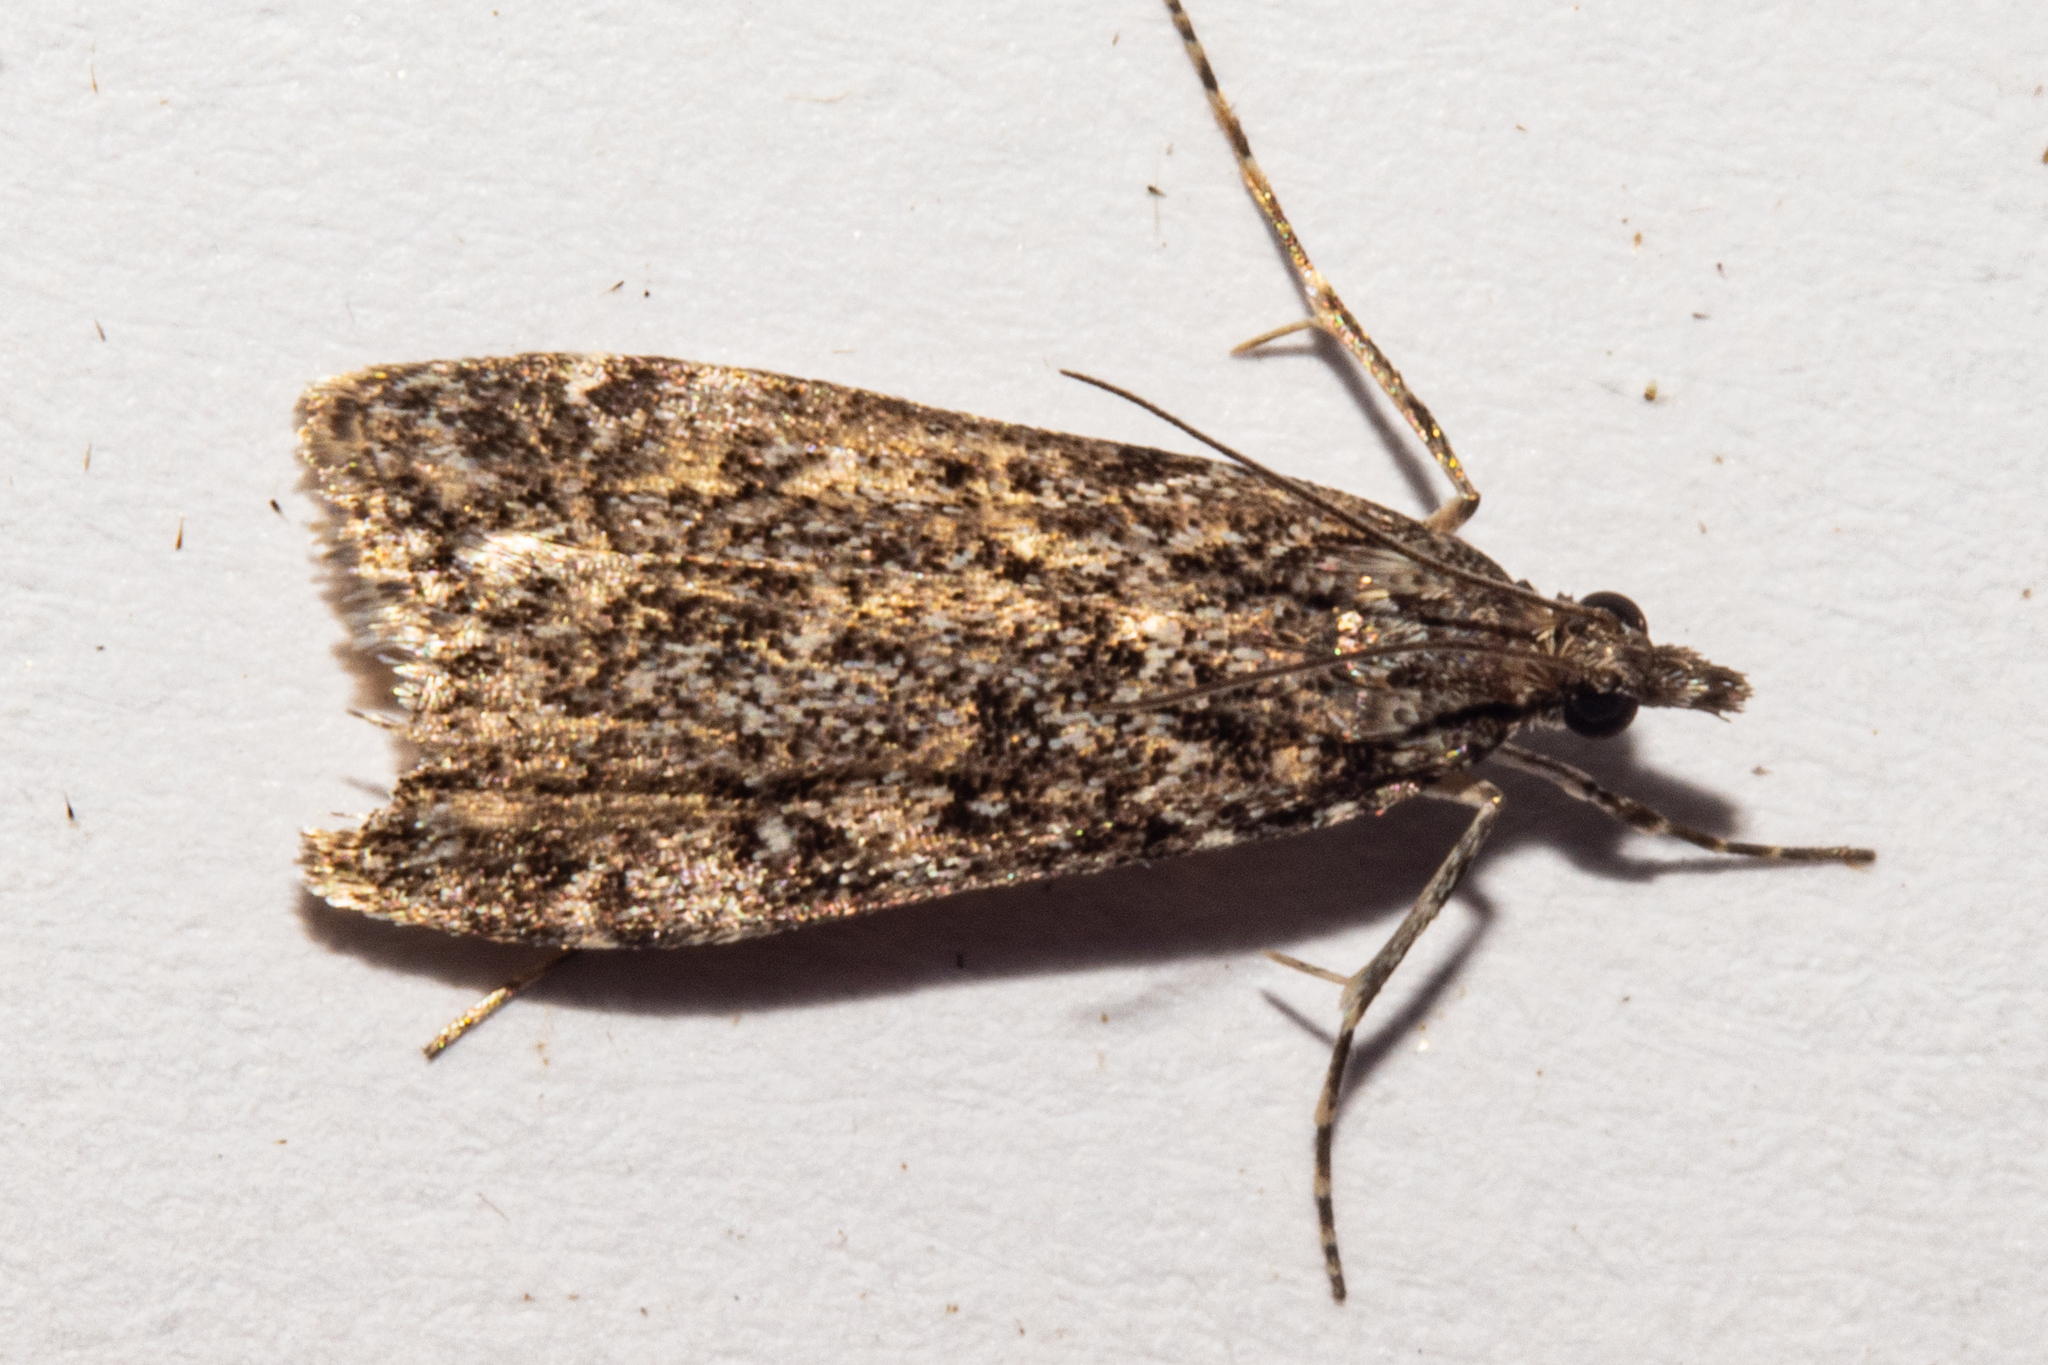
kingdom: Animalia
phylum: Arthropoda
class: Insecta
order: Lepidoptera
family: Crambidae
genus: Eudonia
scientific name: Eudonia philerga
